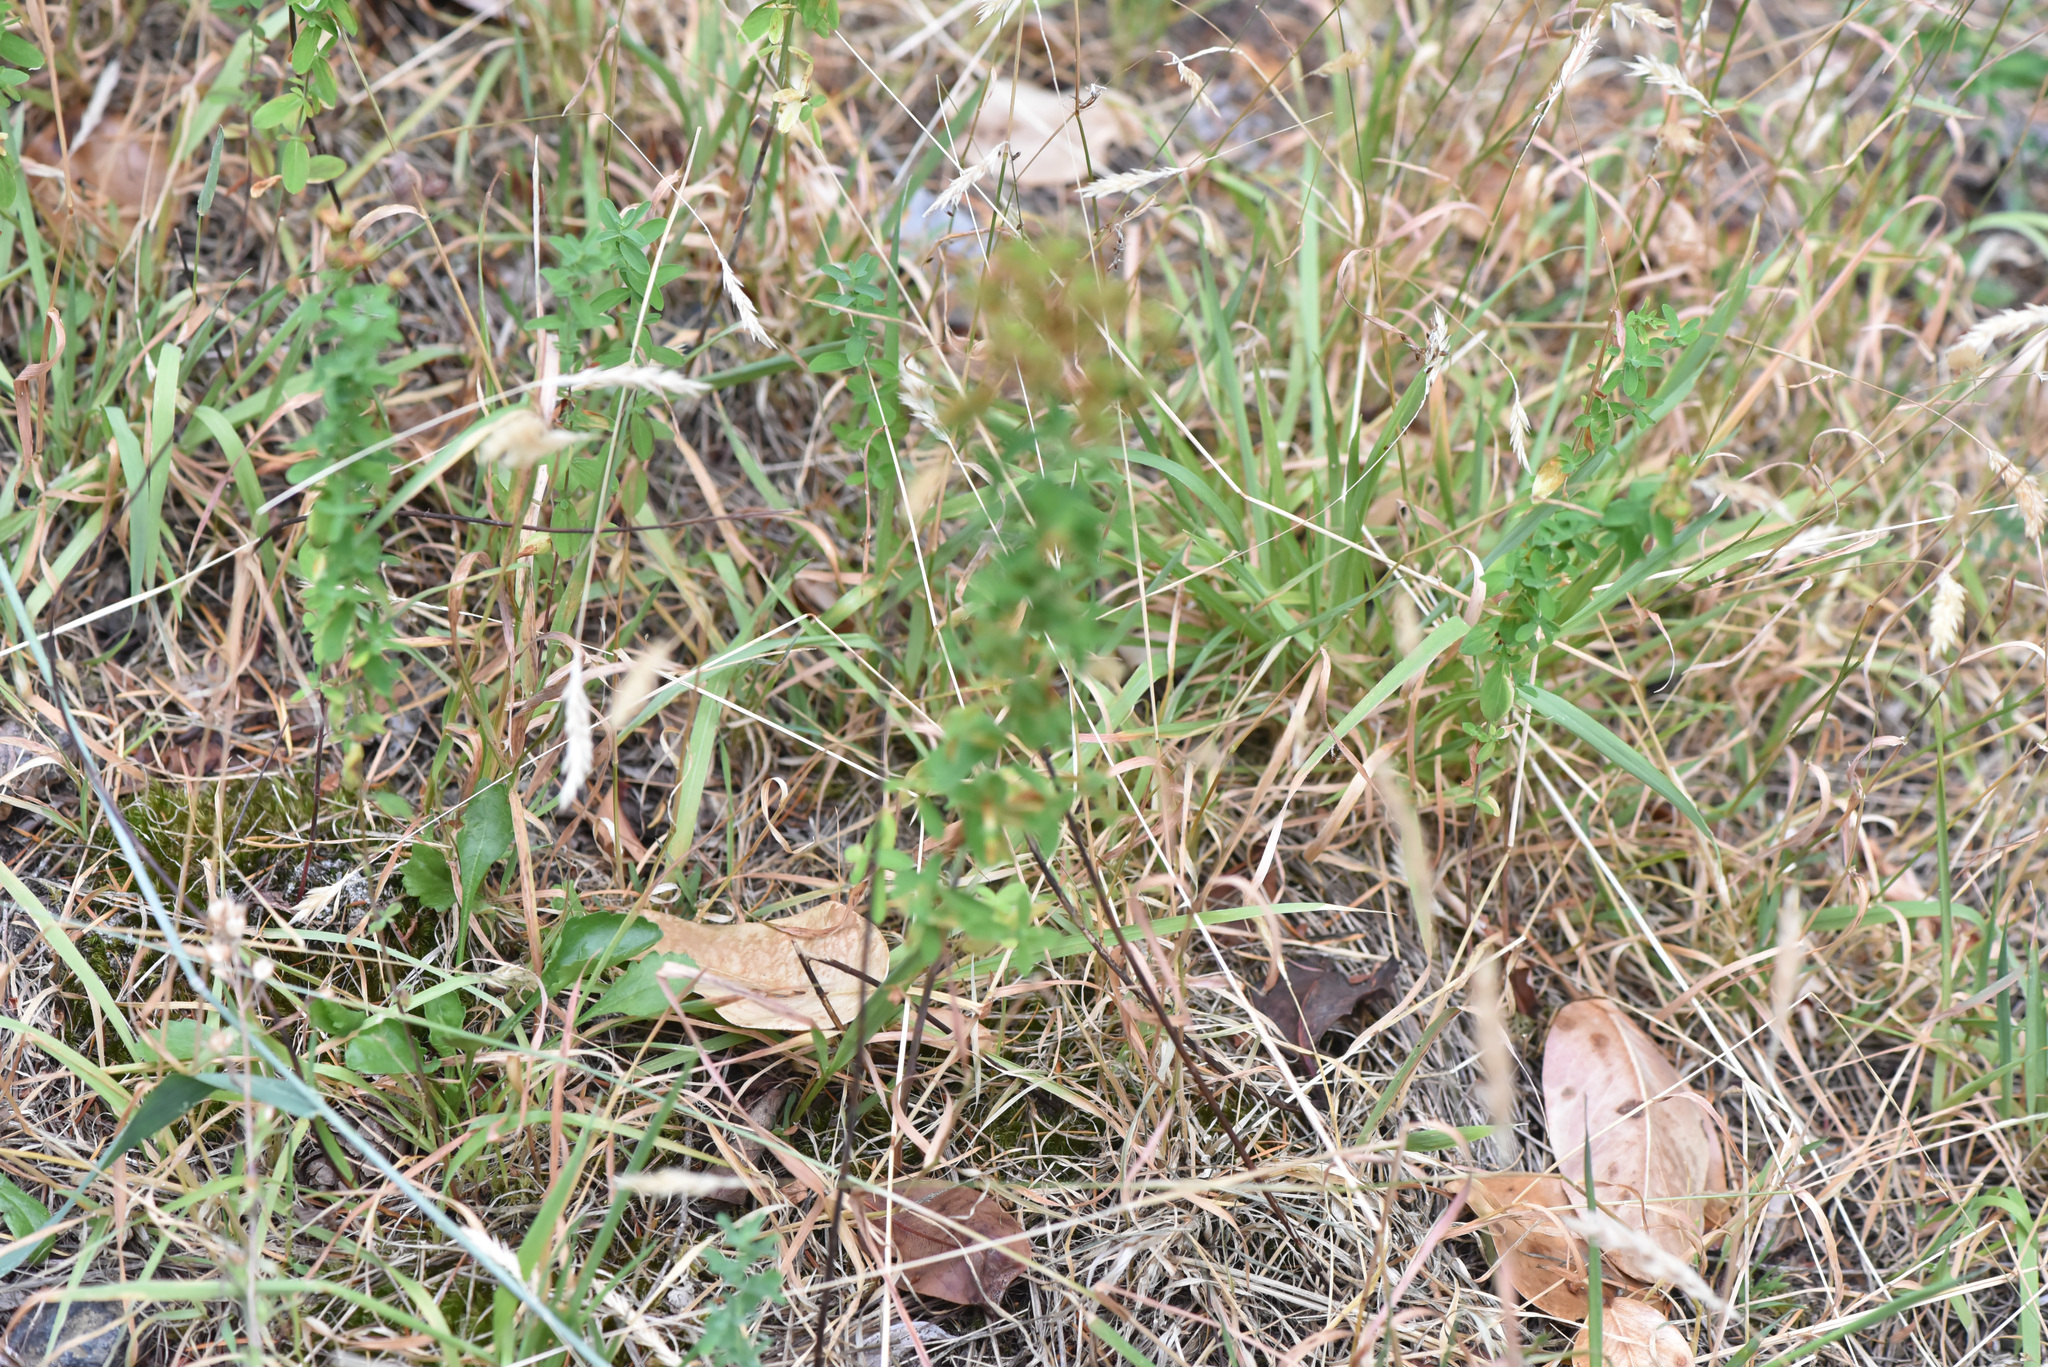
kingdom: Plantae
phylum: Tracheophyta
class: Magnoliopsida
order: Malpighiales
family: Hypericaceae
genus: Hypericum
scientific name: Hypericum perforatum
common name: Common st. johnswort
